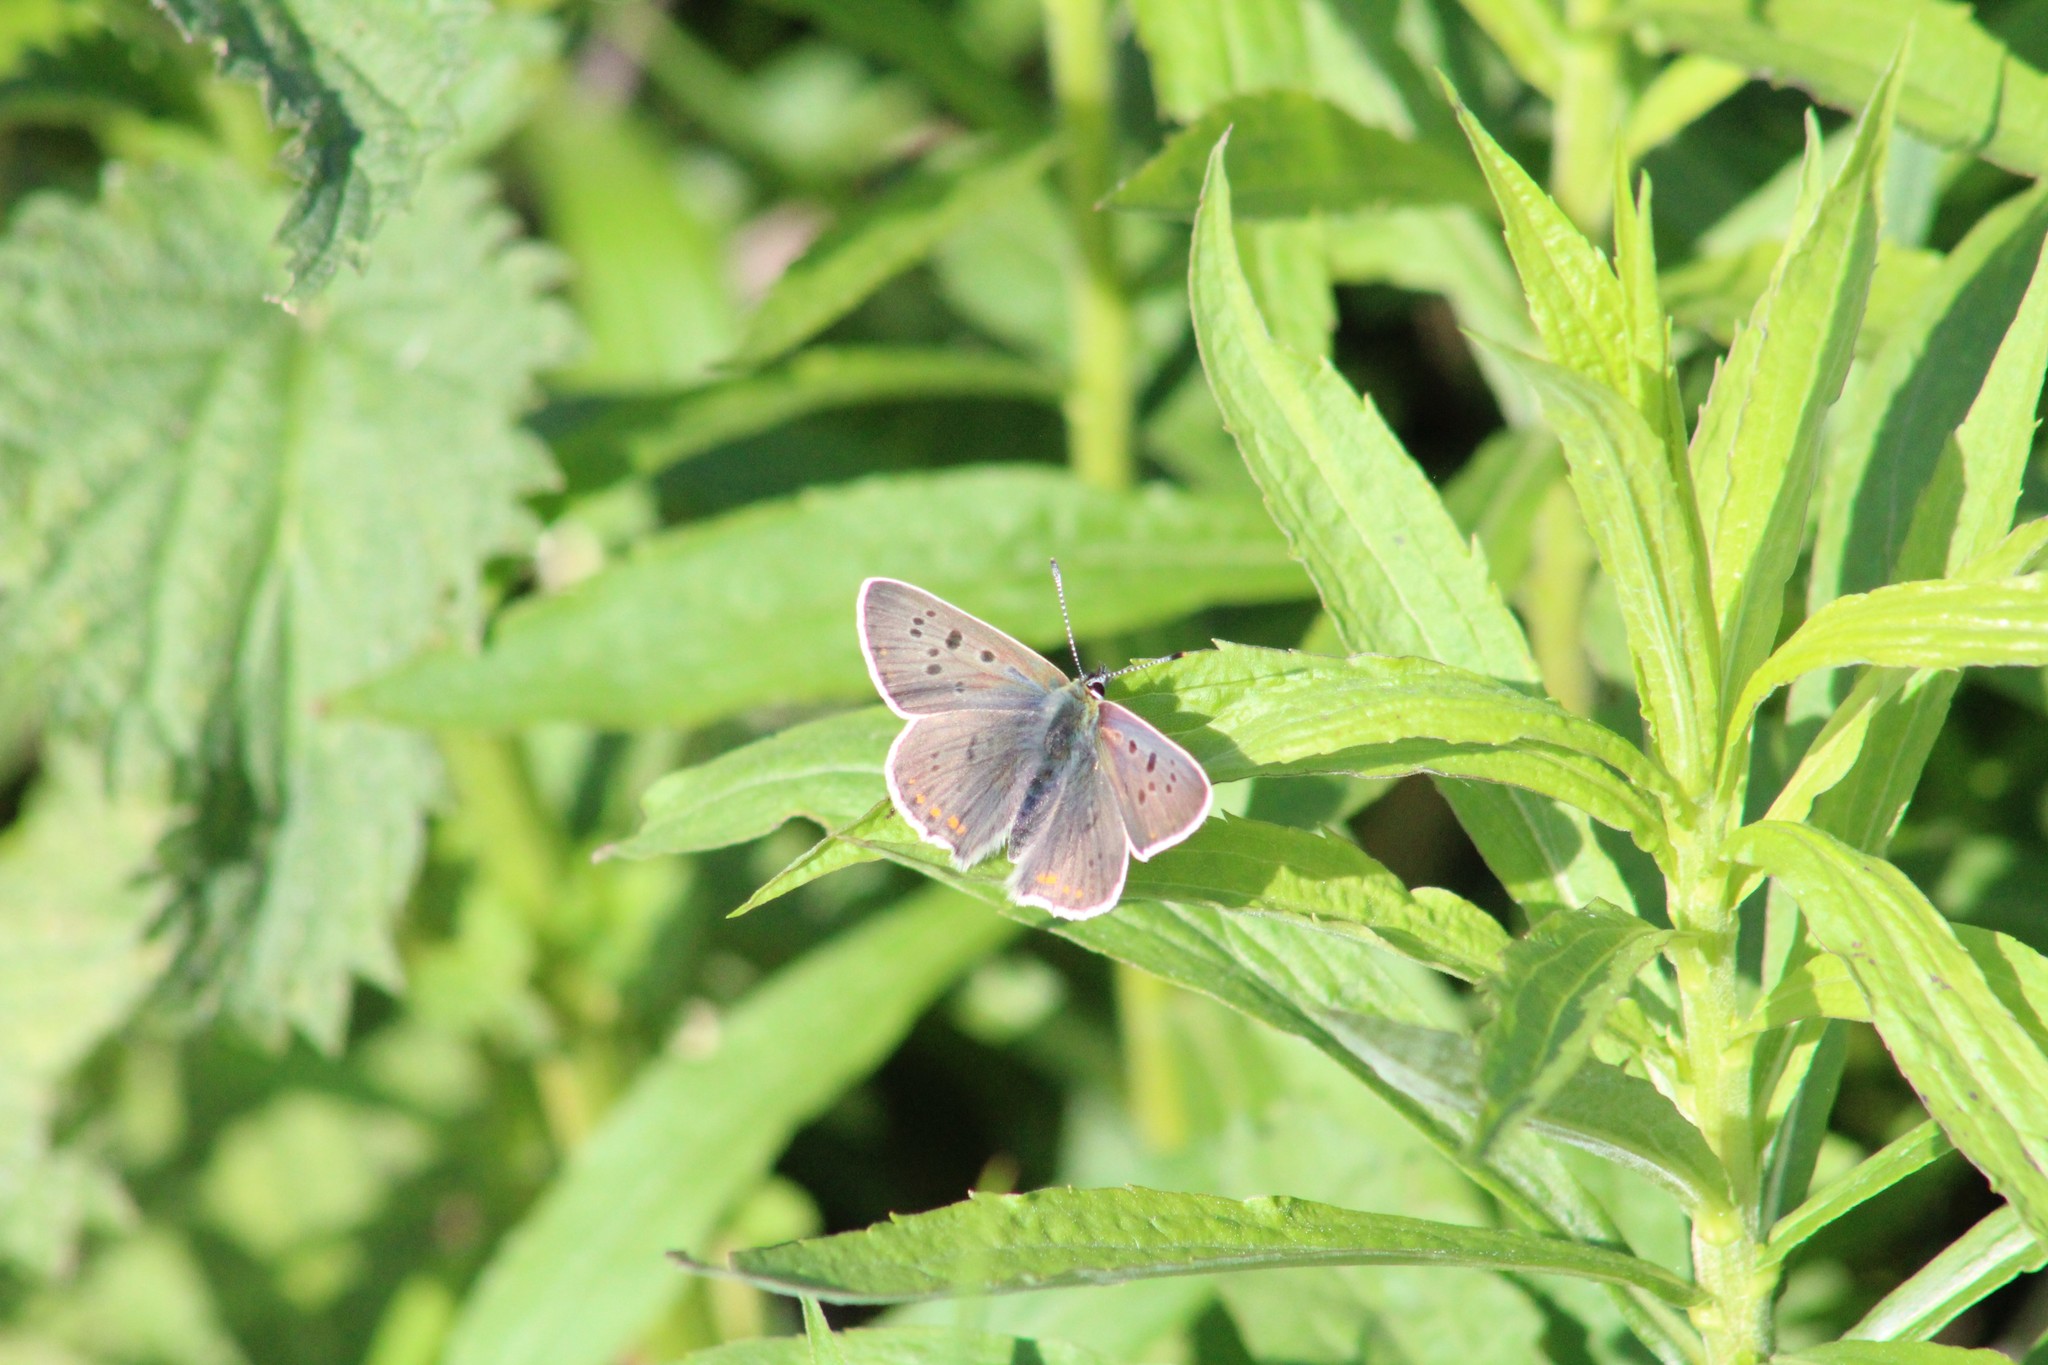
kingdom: Animalia
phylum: Arthropoda
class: Insecta
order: Lepidoptera
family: Lycaenidae
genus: Loweia
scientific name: Loweia tityrus
